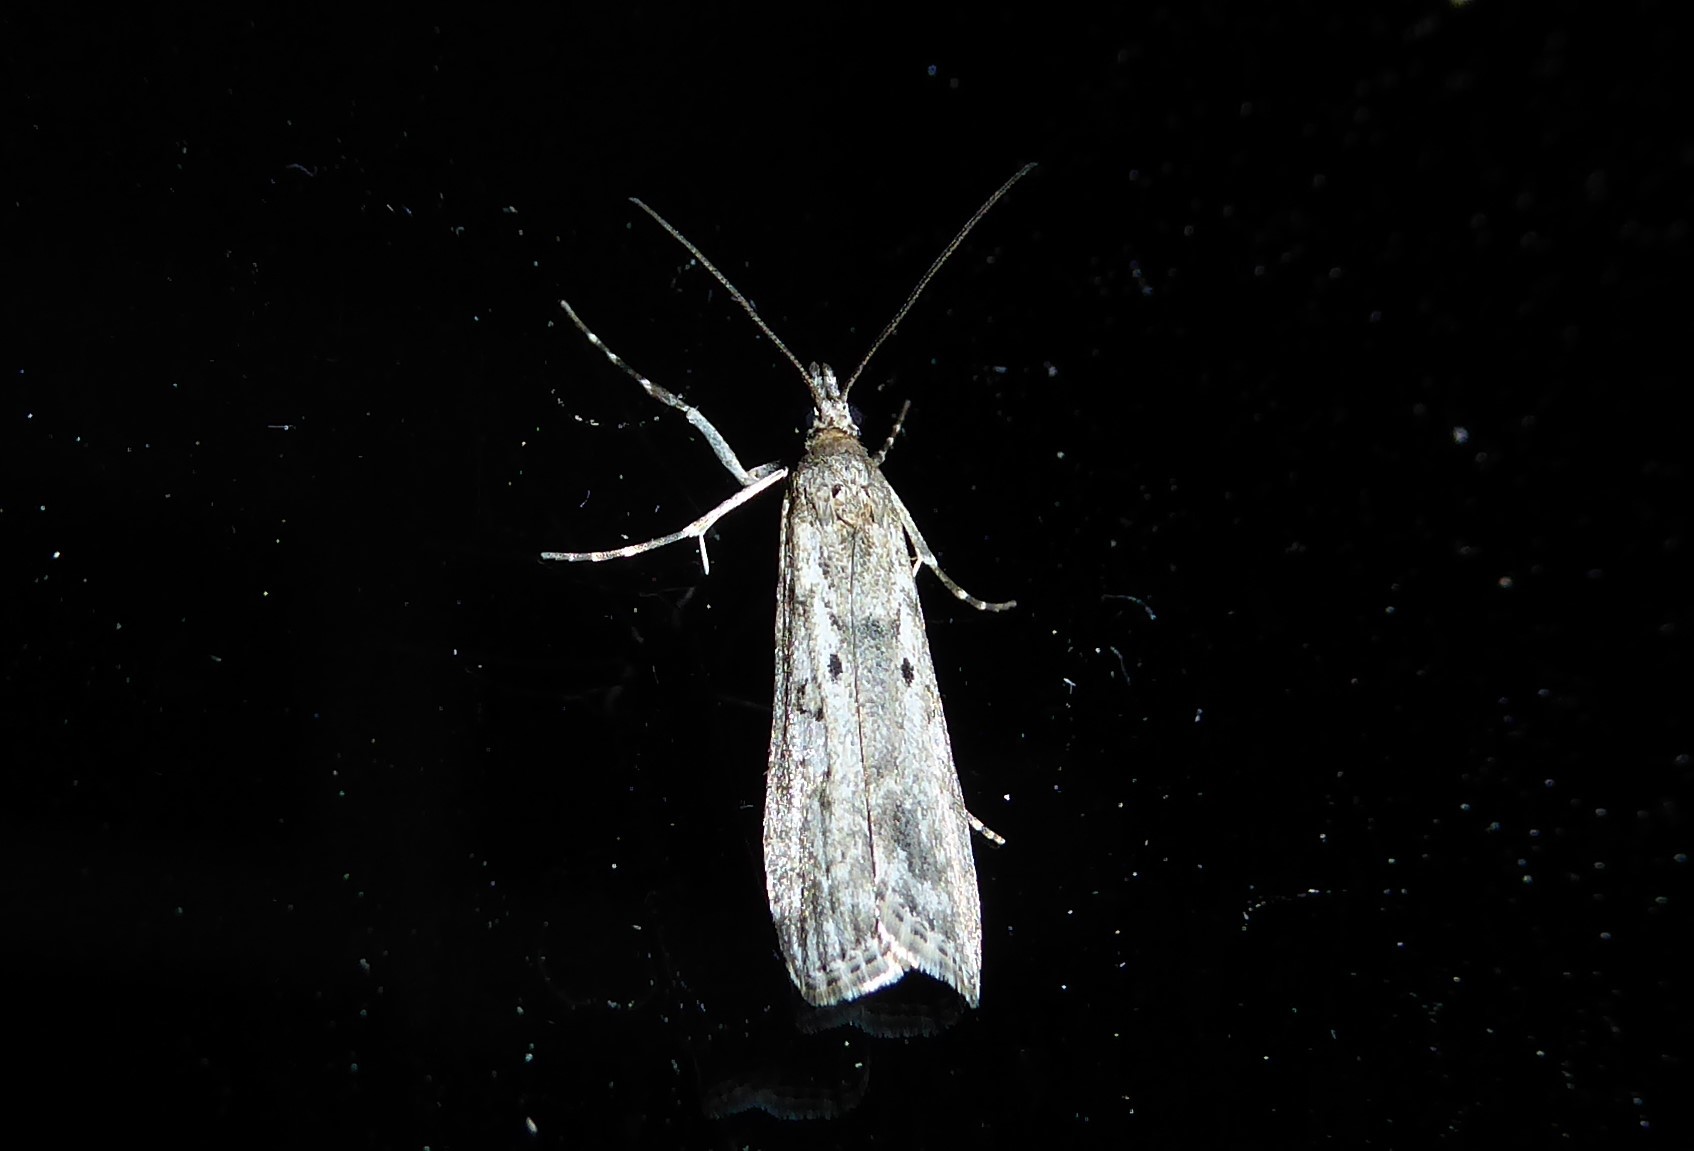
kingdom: Animalia
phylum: Arthropoda
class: Insecta
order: Lepidoptera
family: Crambidae
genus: Eudonia
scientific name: Eudonia leptalea
